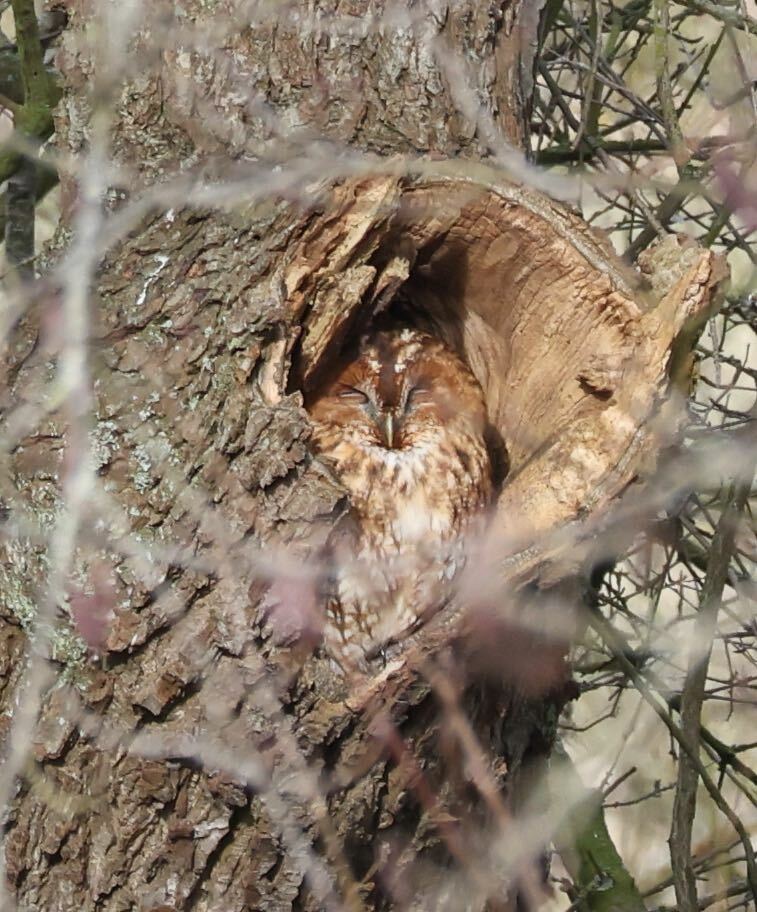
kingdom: Animalia
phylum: Chordata
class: Aves
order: Strigiformes
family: Strigidae
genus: Strix
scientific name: Strix aluco
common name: Tawny owl
